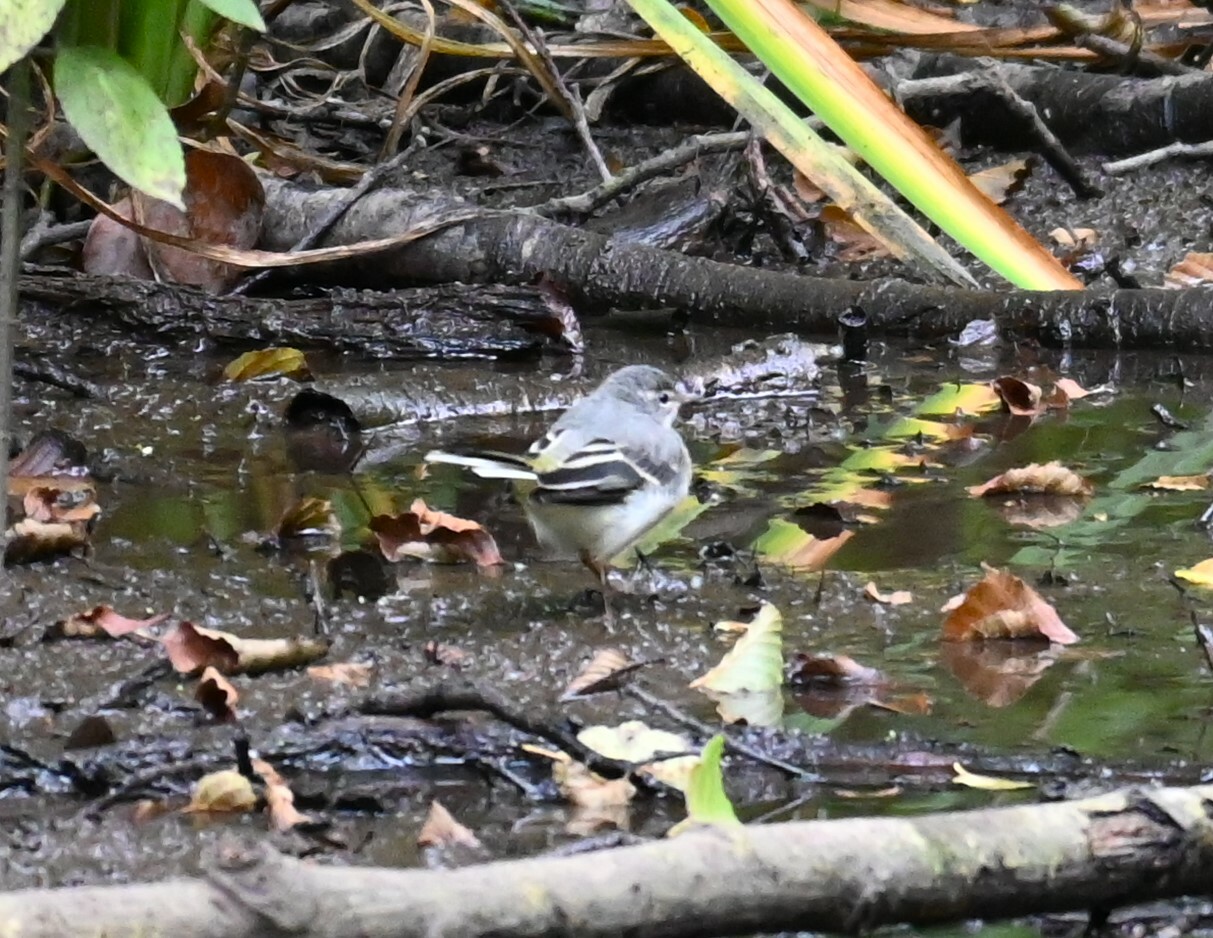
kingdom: Animalia
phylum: Chordata
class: Aves
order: Passeriformes
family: Motacillidae
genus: Motacilla
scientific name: Motacilla cinerea
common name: Grey wagtail
